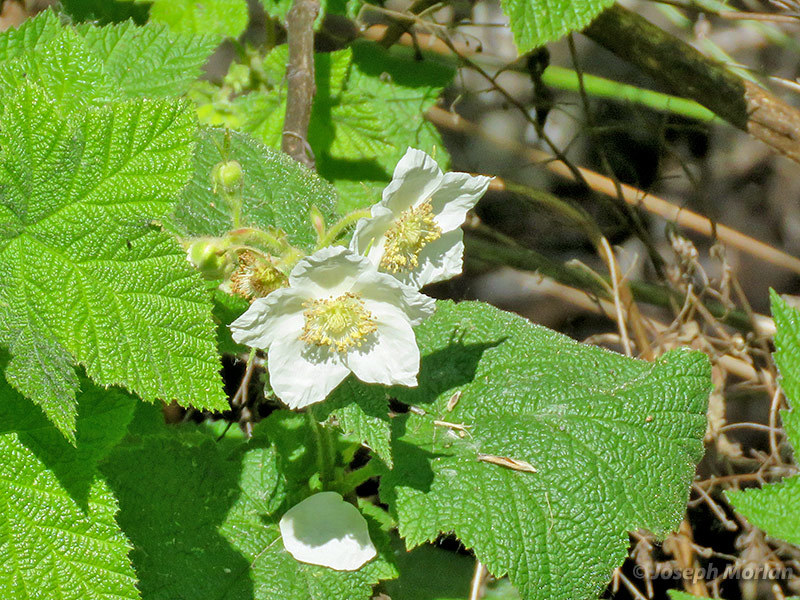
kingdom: Plantae
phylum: Tracheophyta
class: Magnoliopsida
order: Rosales
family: Rosaceae
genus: Rubus
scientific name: Rubus parviflorus
